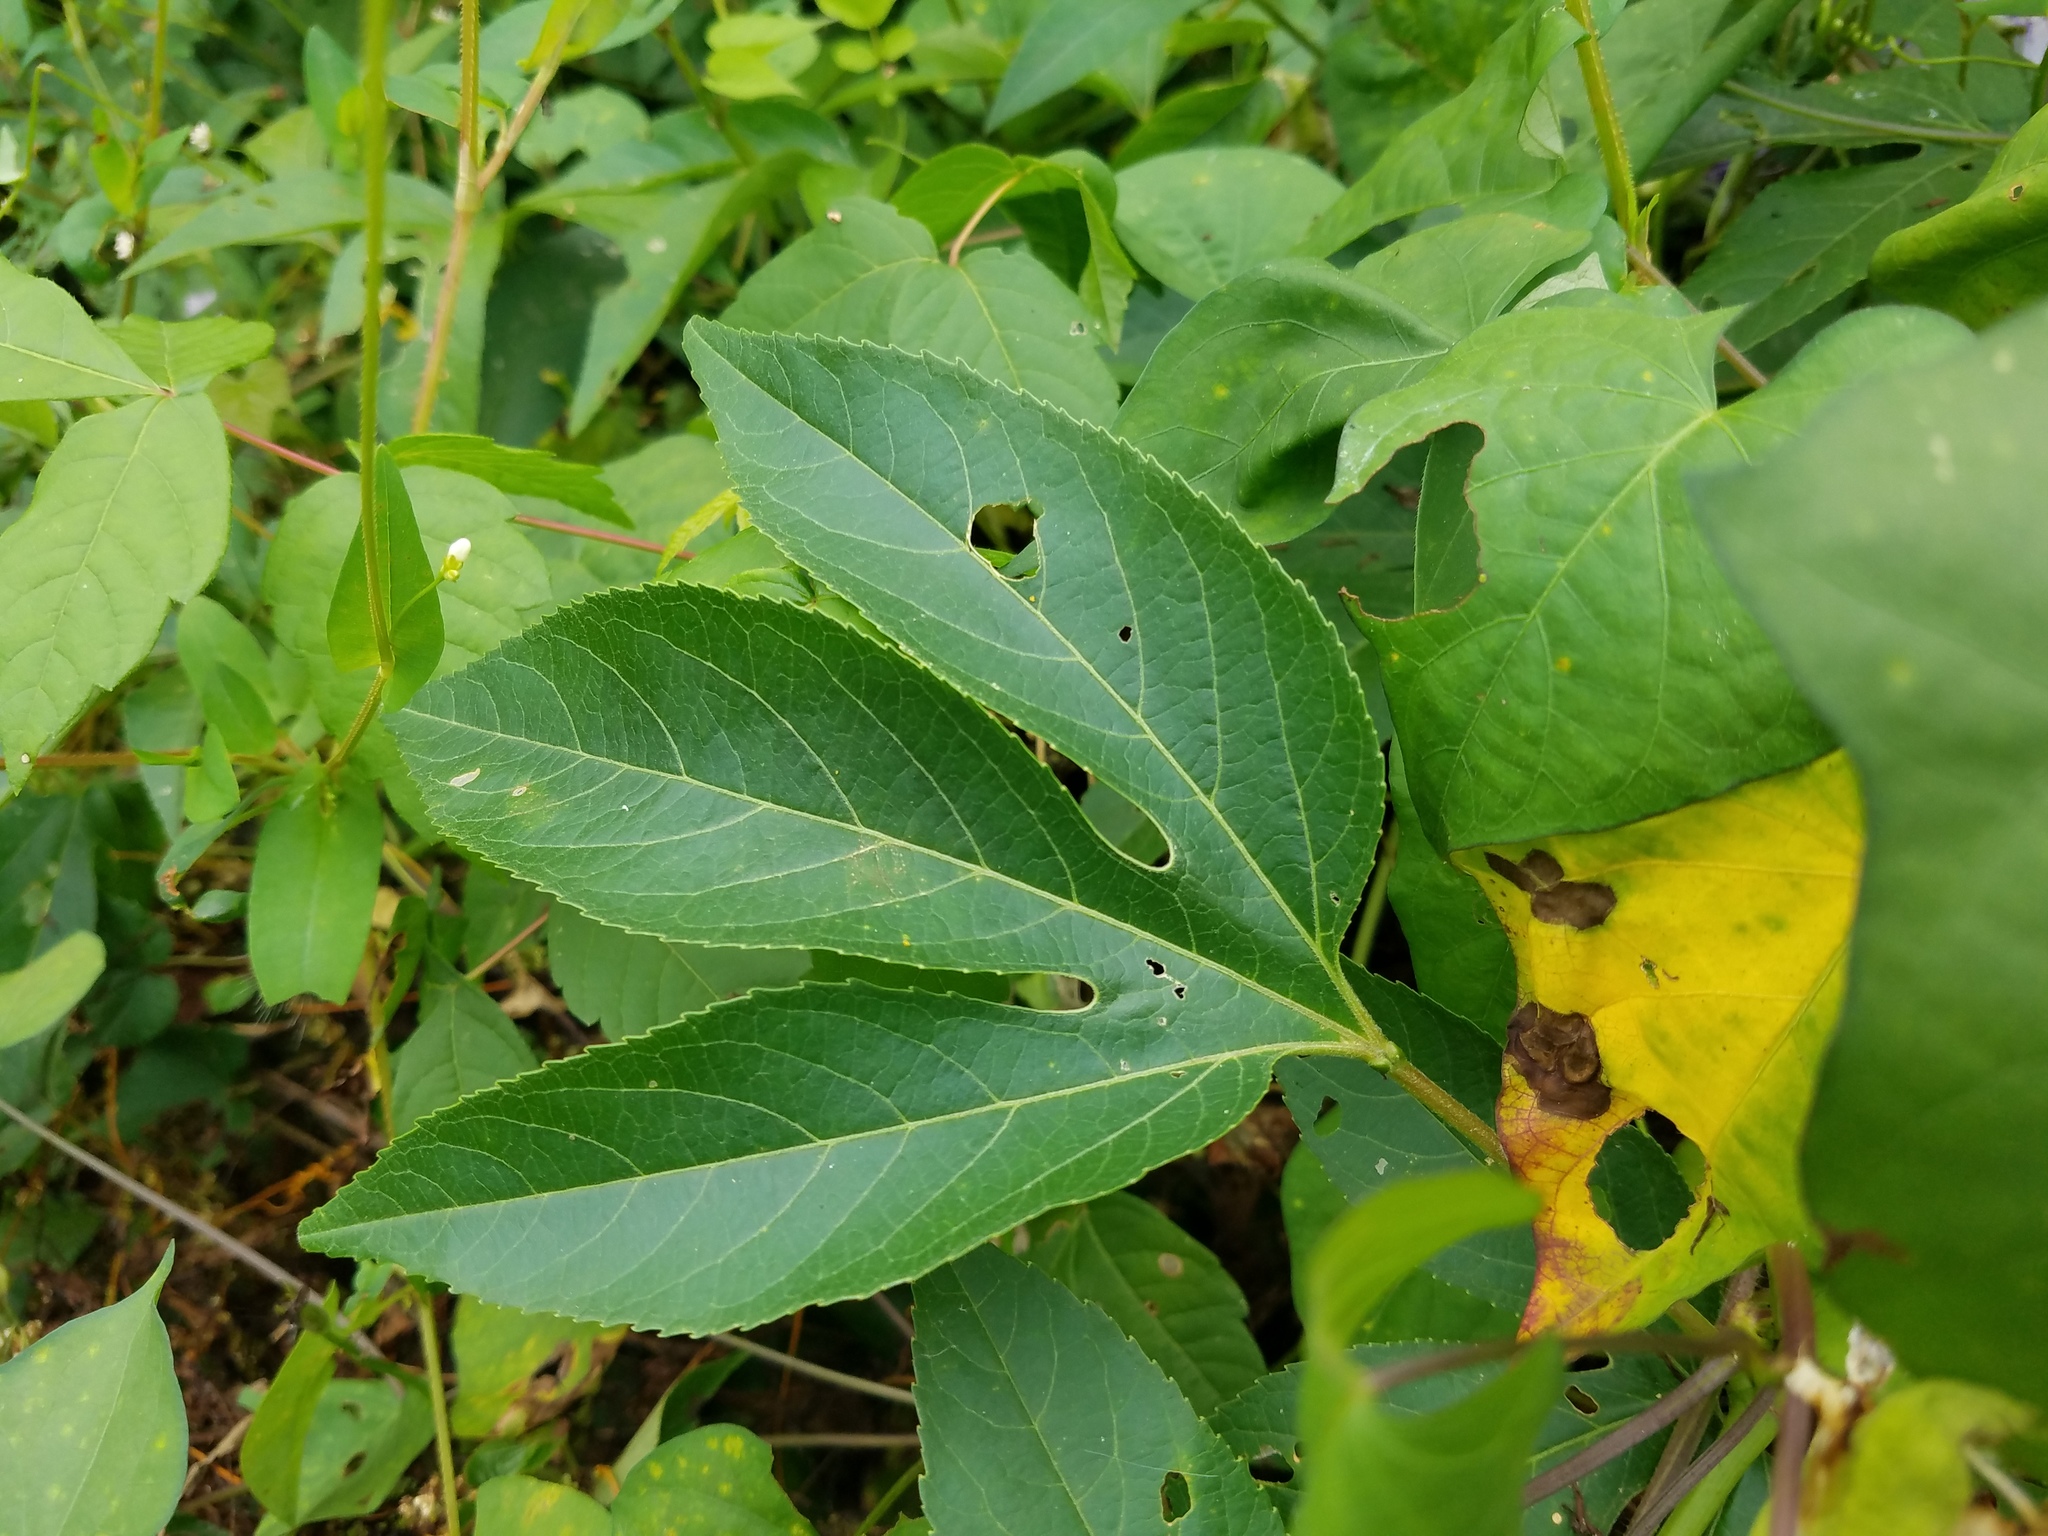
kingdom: Plantae
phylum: Tracheophyta
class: Magnoliopsida
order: Malpighiales
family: Passifloraceae
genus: Passiflora
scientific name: Passiflora incarnata
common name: Apricot-vine
